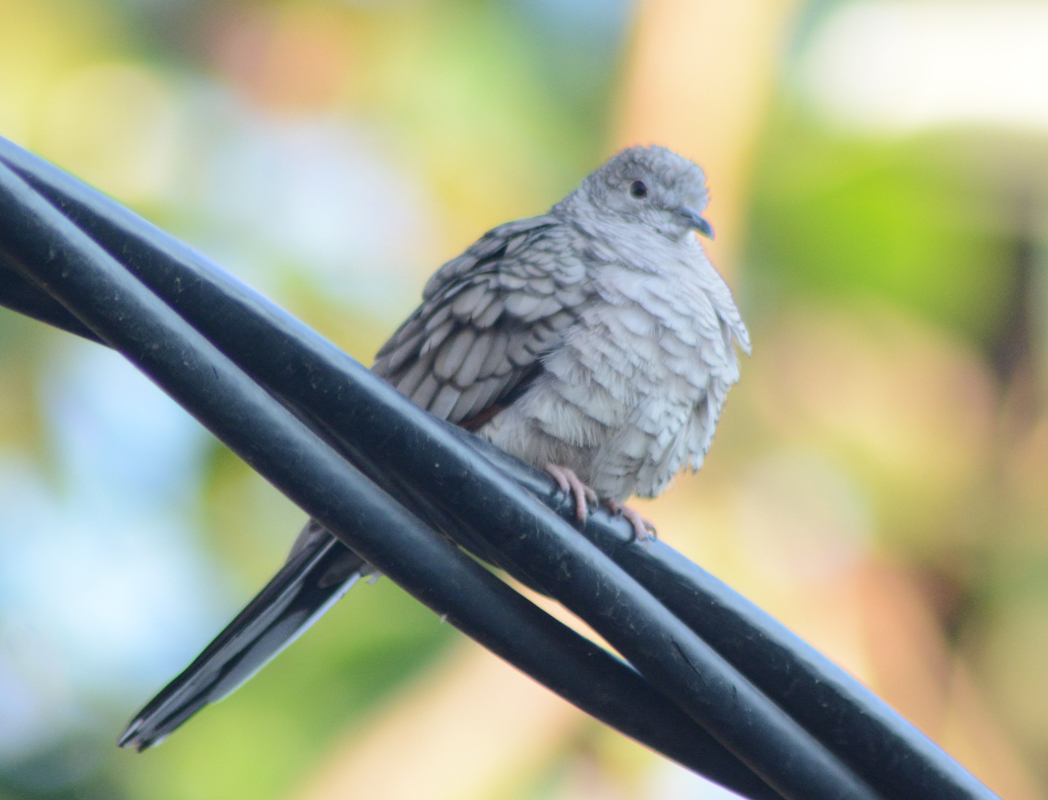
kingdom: Animalia
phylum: Chordata
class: Aves
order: Columbiformes
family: Columbidae
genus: Columbina
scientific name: Columbina inca
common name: Inca dove
